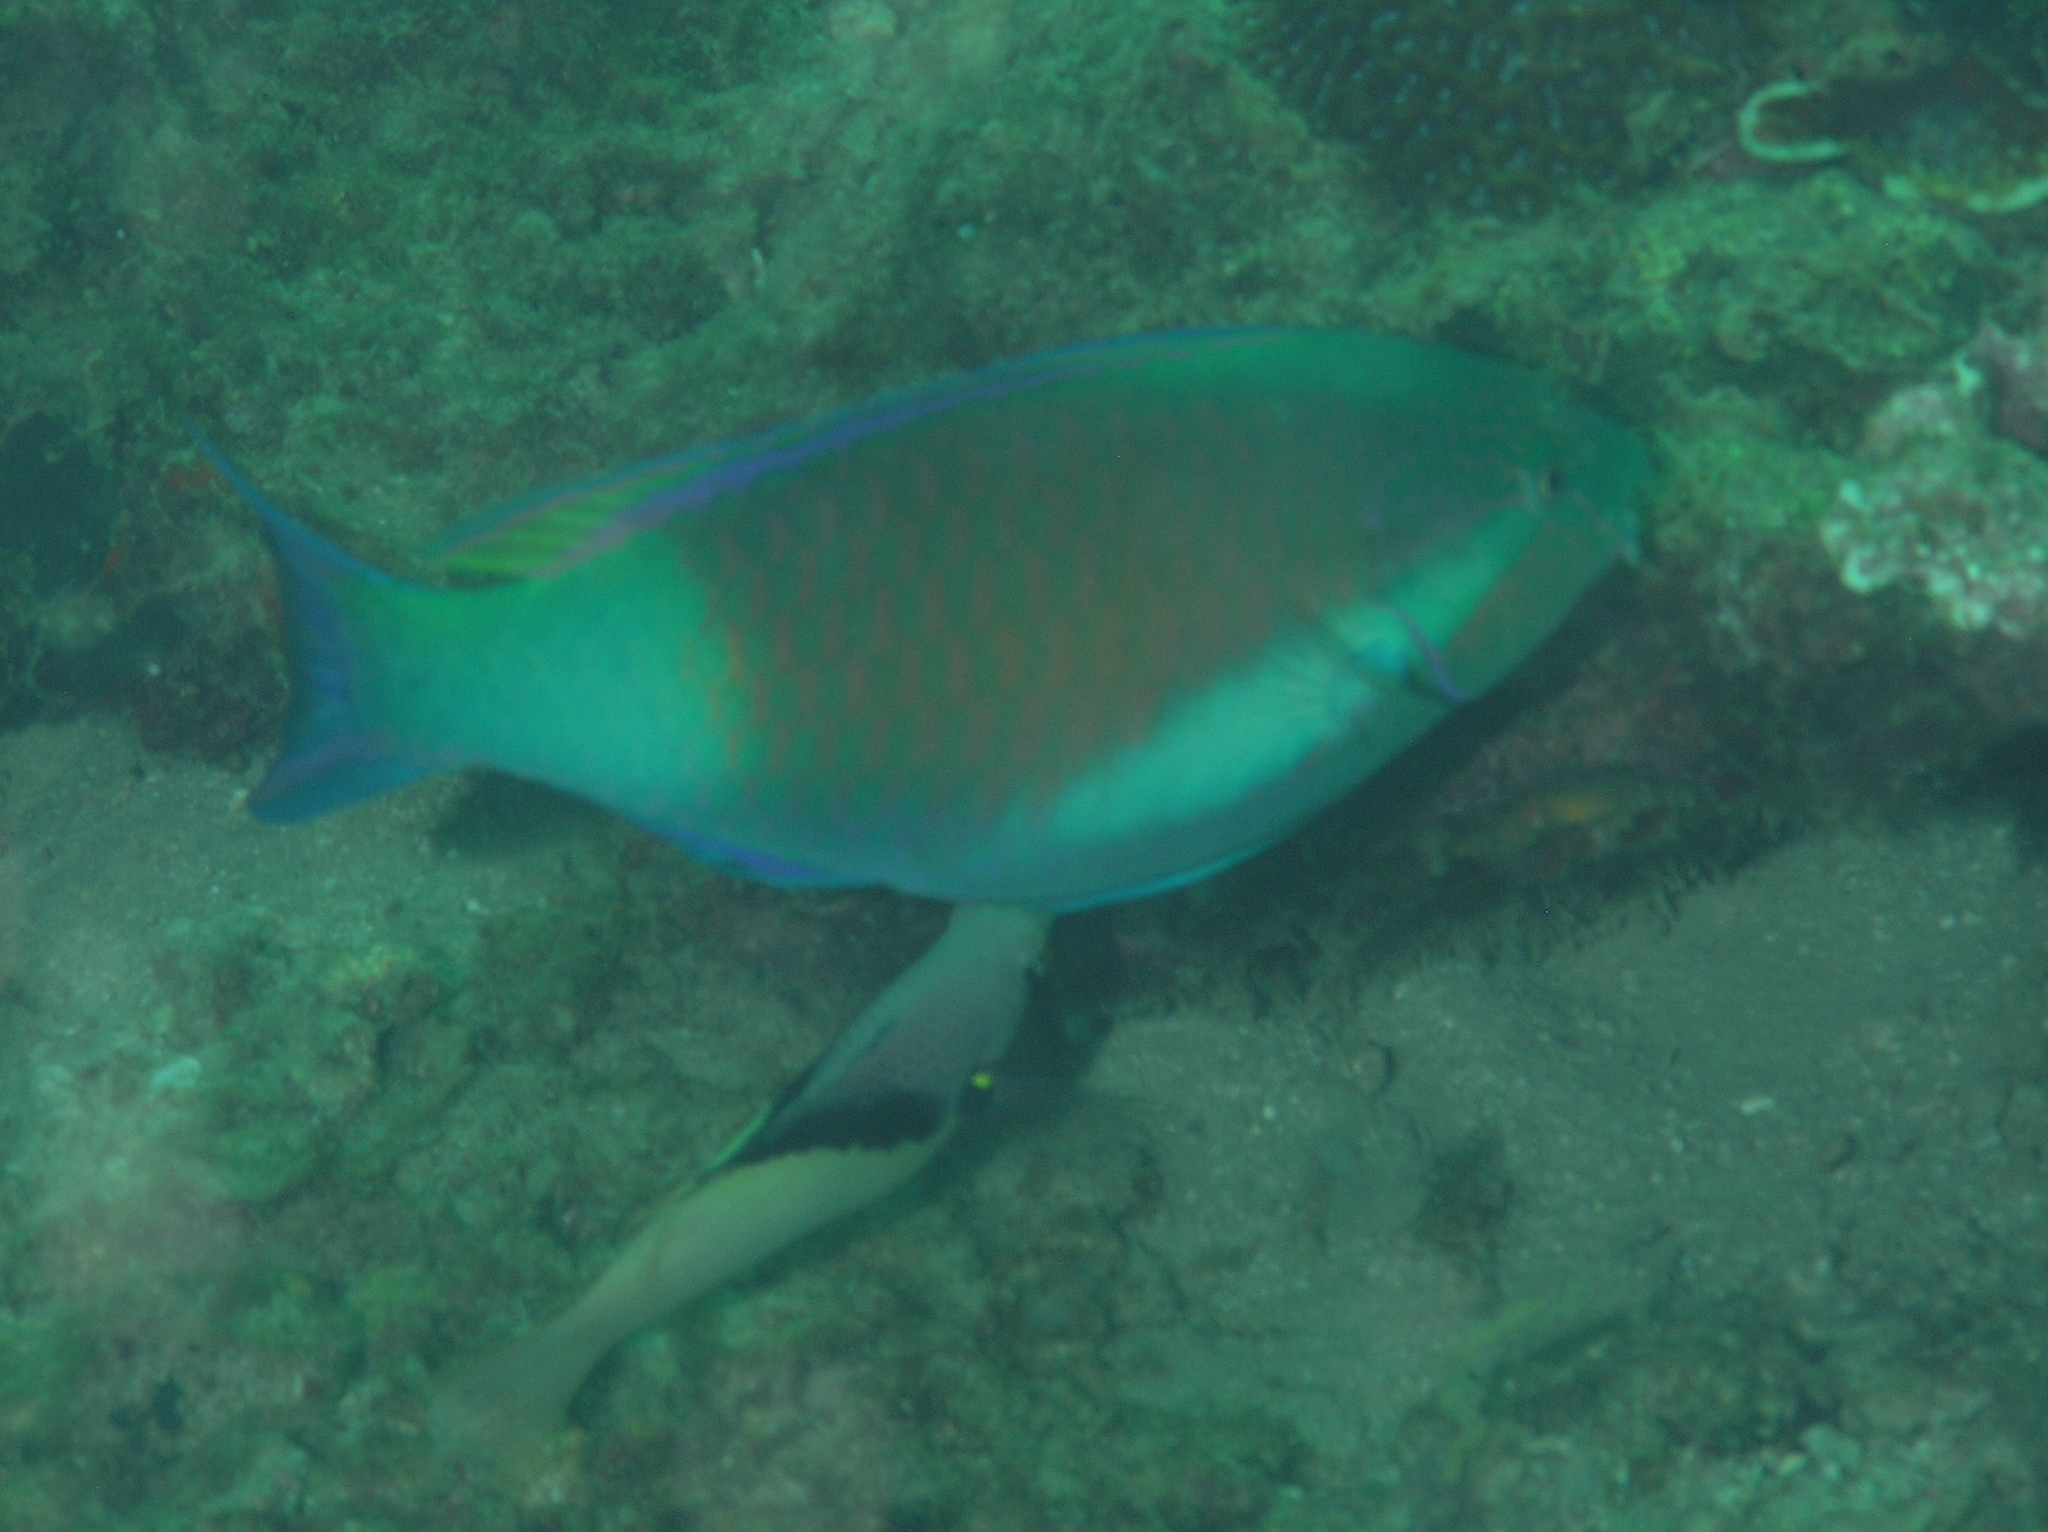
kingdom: Animalia
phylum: Chordata
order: Perciformes
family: Scaridae
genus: Scarus
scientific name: Scarus hypselopterus
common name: Java parrotfish
